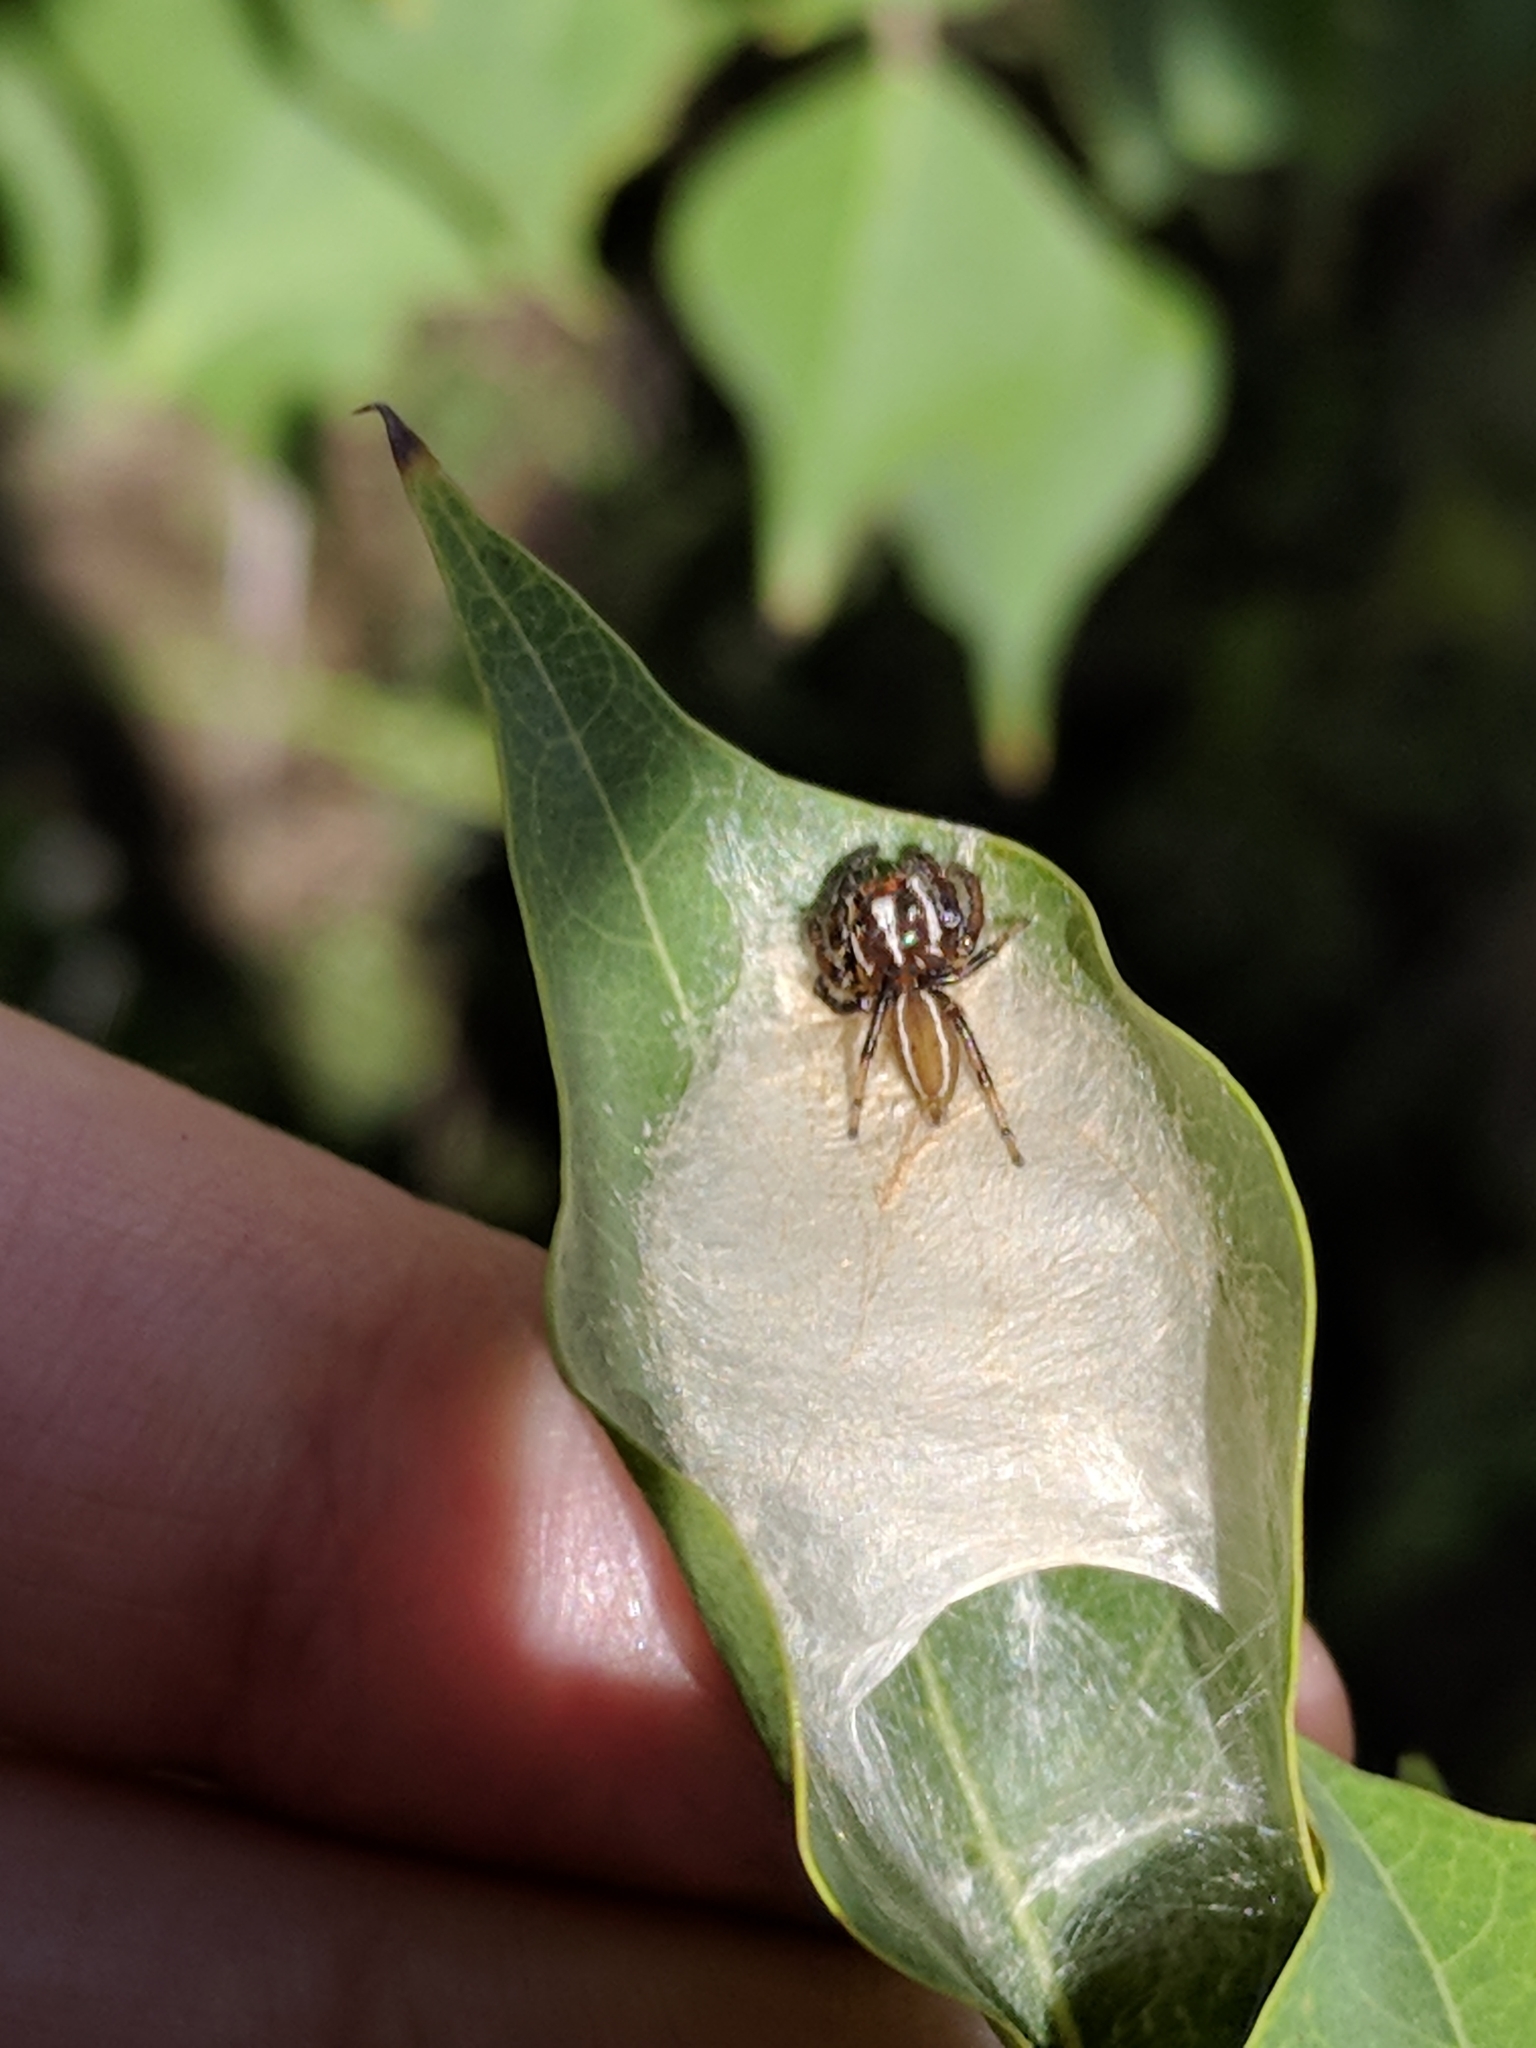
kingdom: Animalia
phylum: Arthropoda
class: Arachnida
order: Araneae
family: Salticidae
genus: Colonus
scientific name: Colonus puerperus
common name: Jumping spiders
